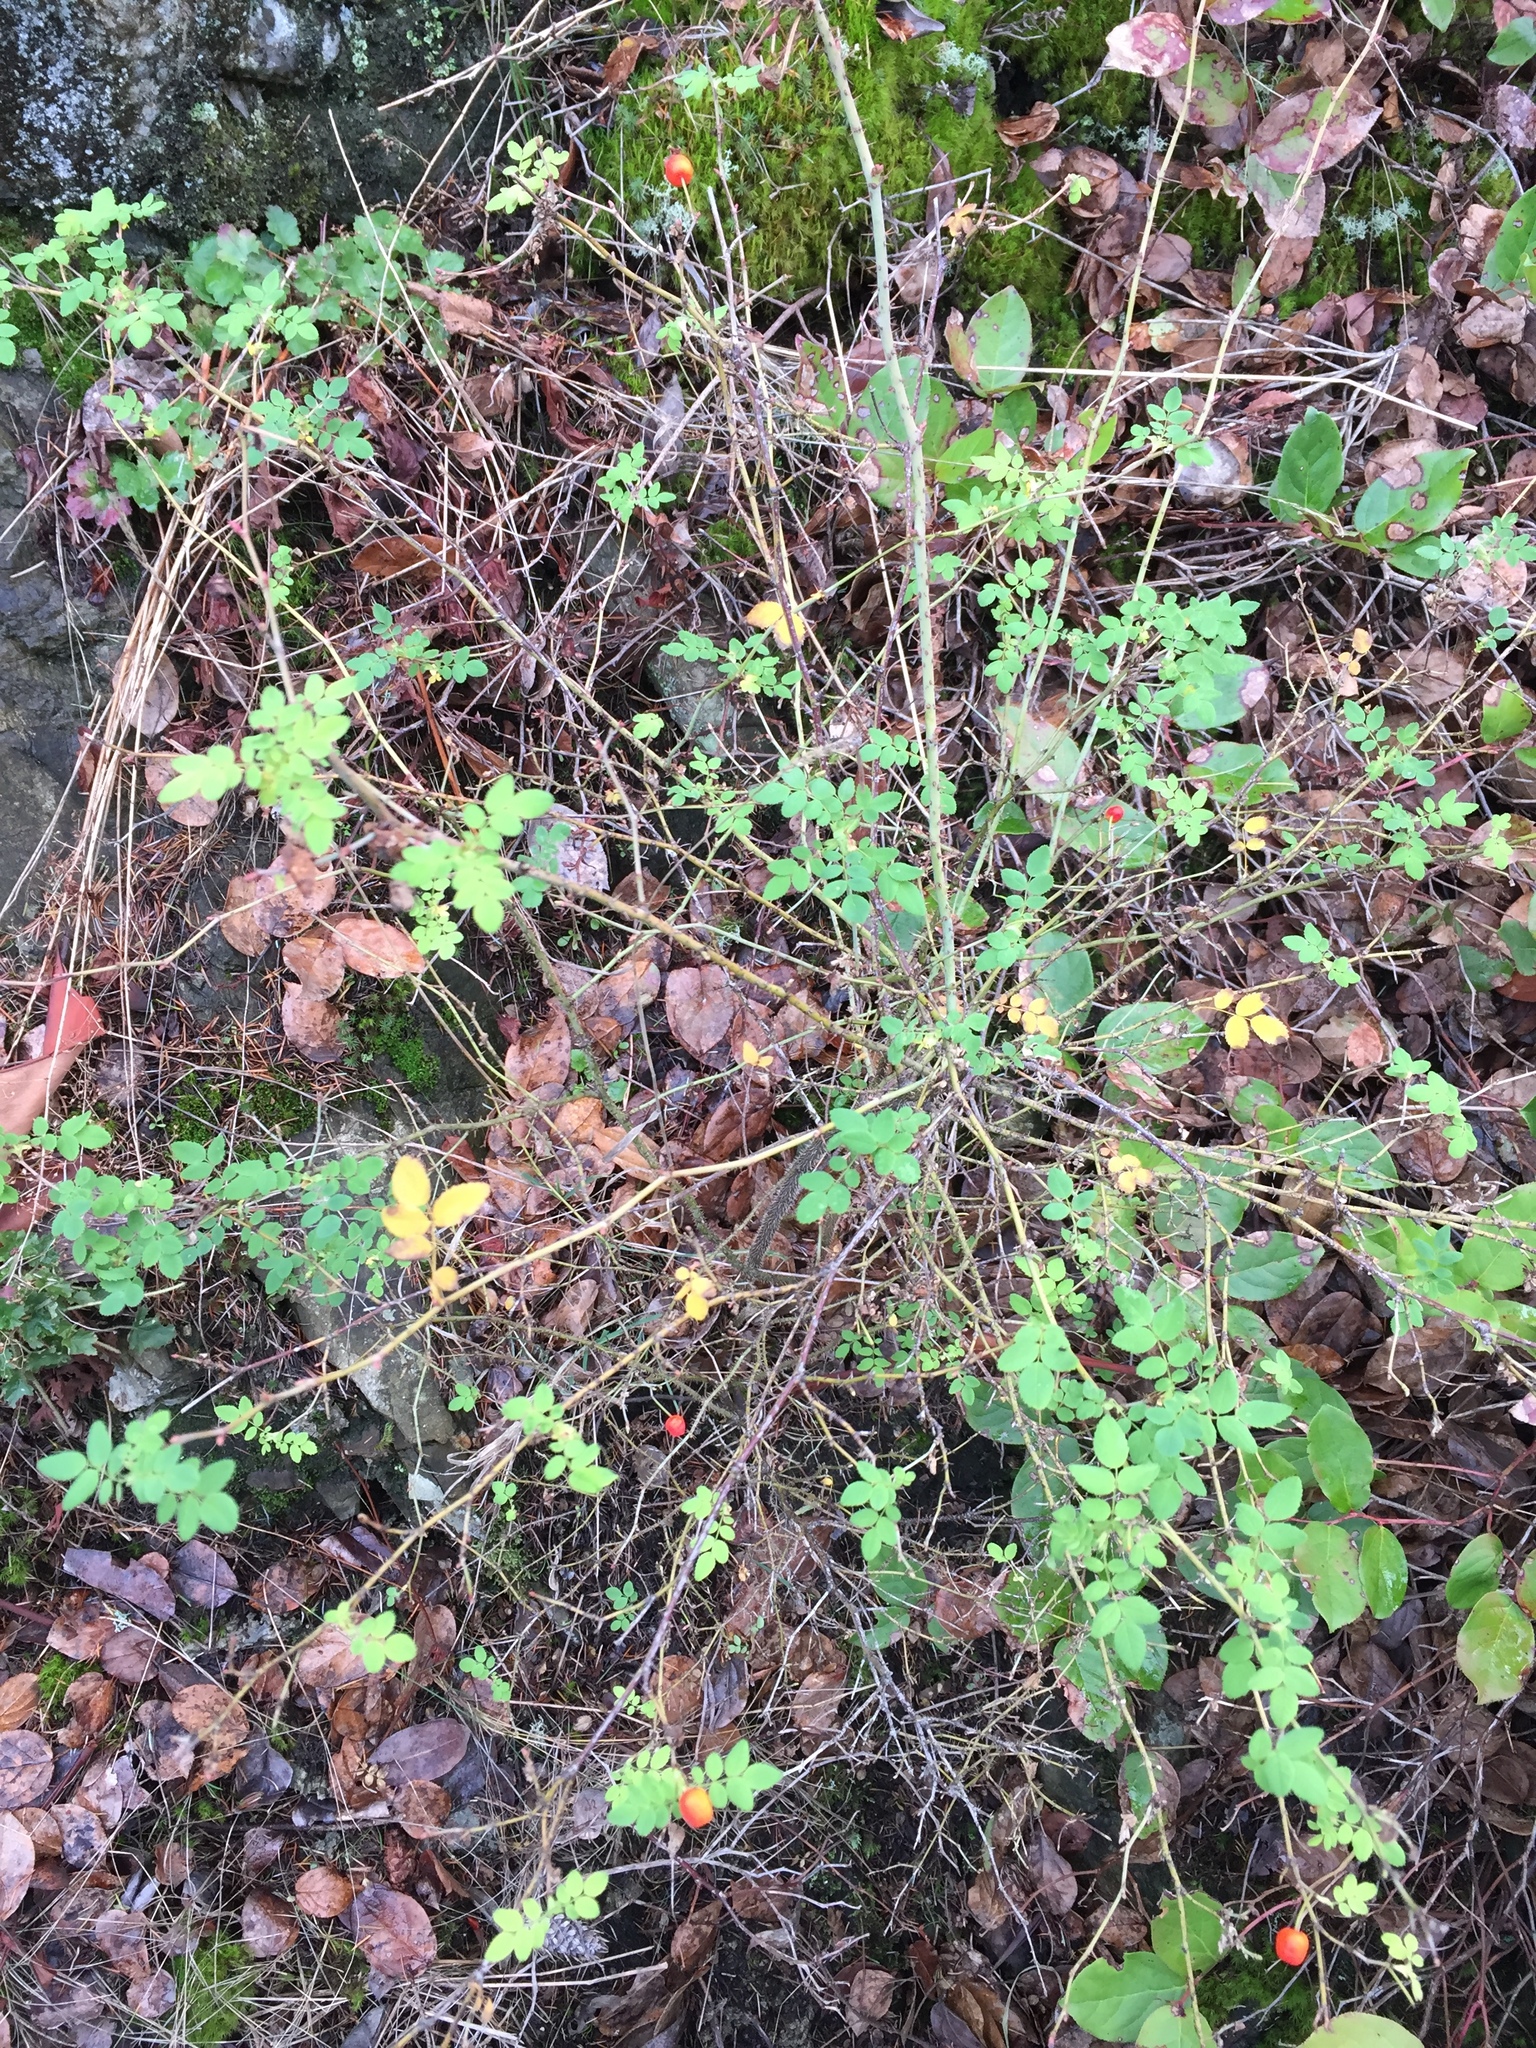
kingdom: Plantae
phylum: Tracheophyta
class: Magnoliopsida
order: Rosales
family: Rosaceae
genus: Rosa
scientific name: Rosa gymnocarpa
